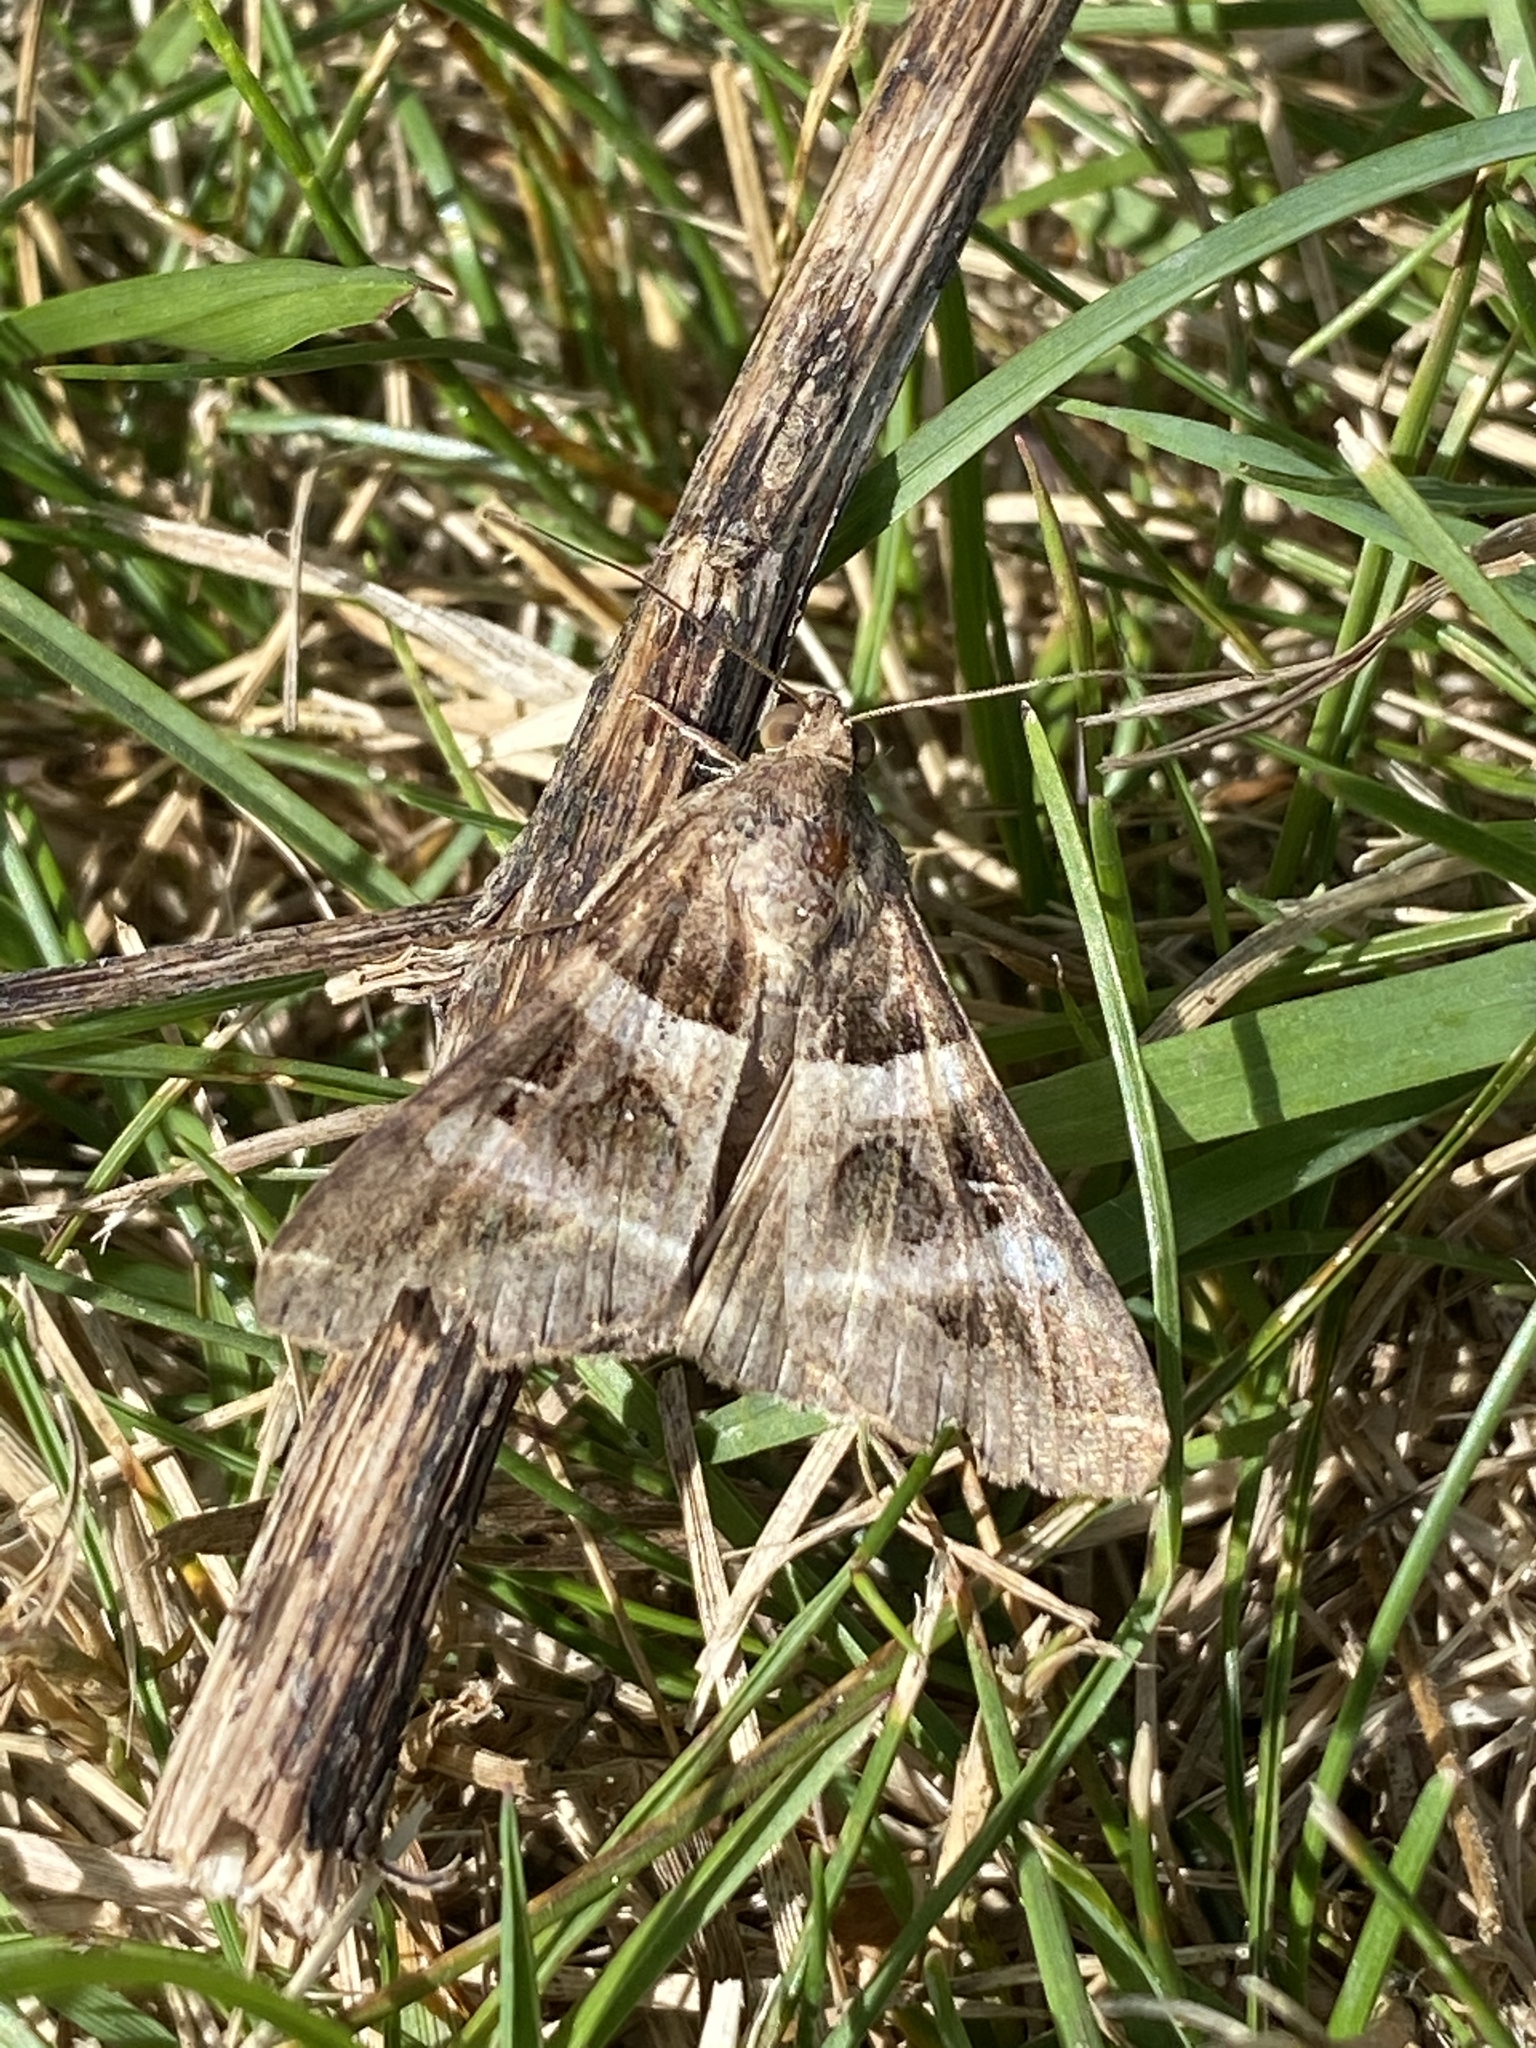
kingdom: Animalia
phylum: Arthropoda
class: Insecta
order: Lepidoptera
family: Erebidae
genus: Melipotis
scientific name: Melipotis perpendicularis
